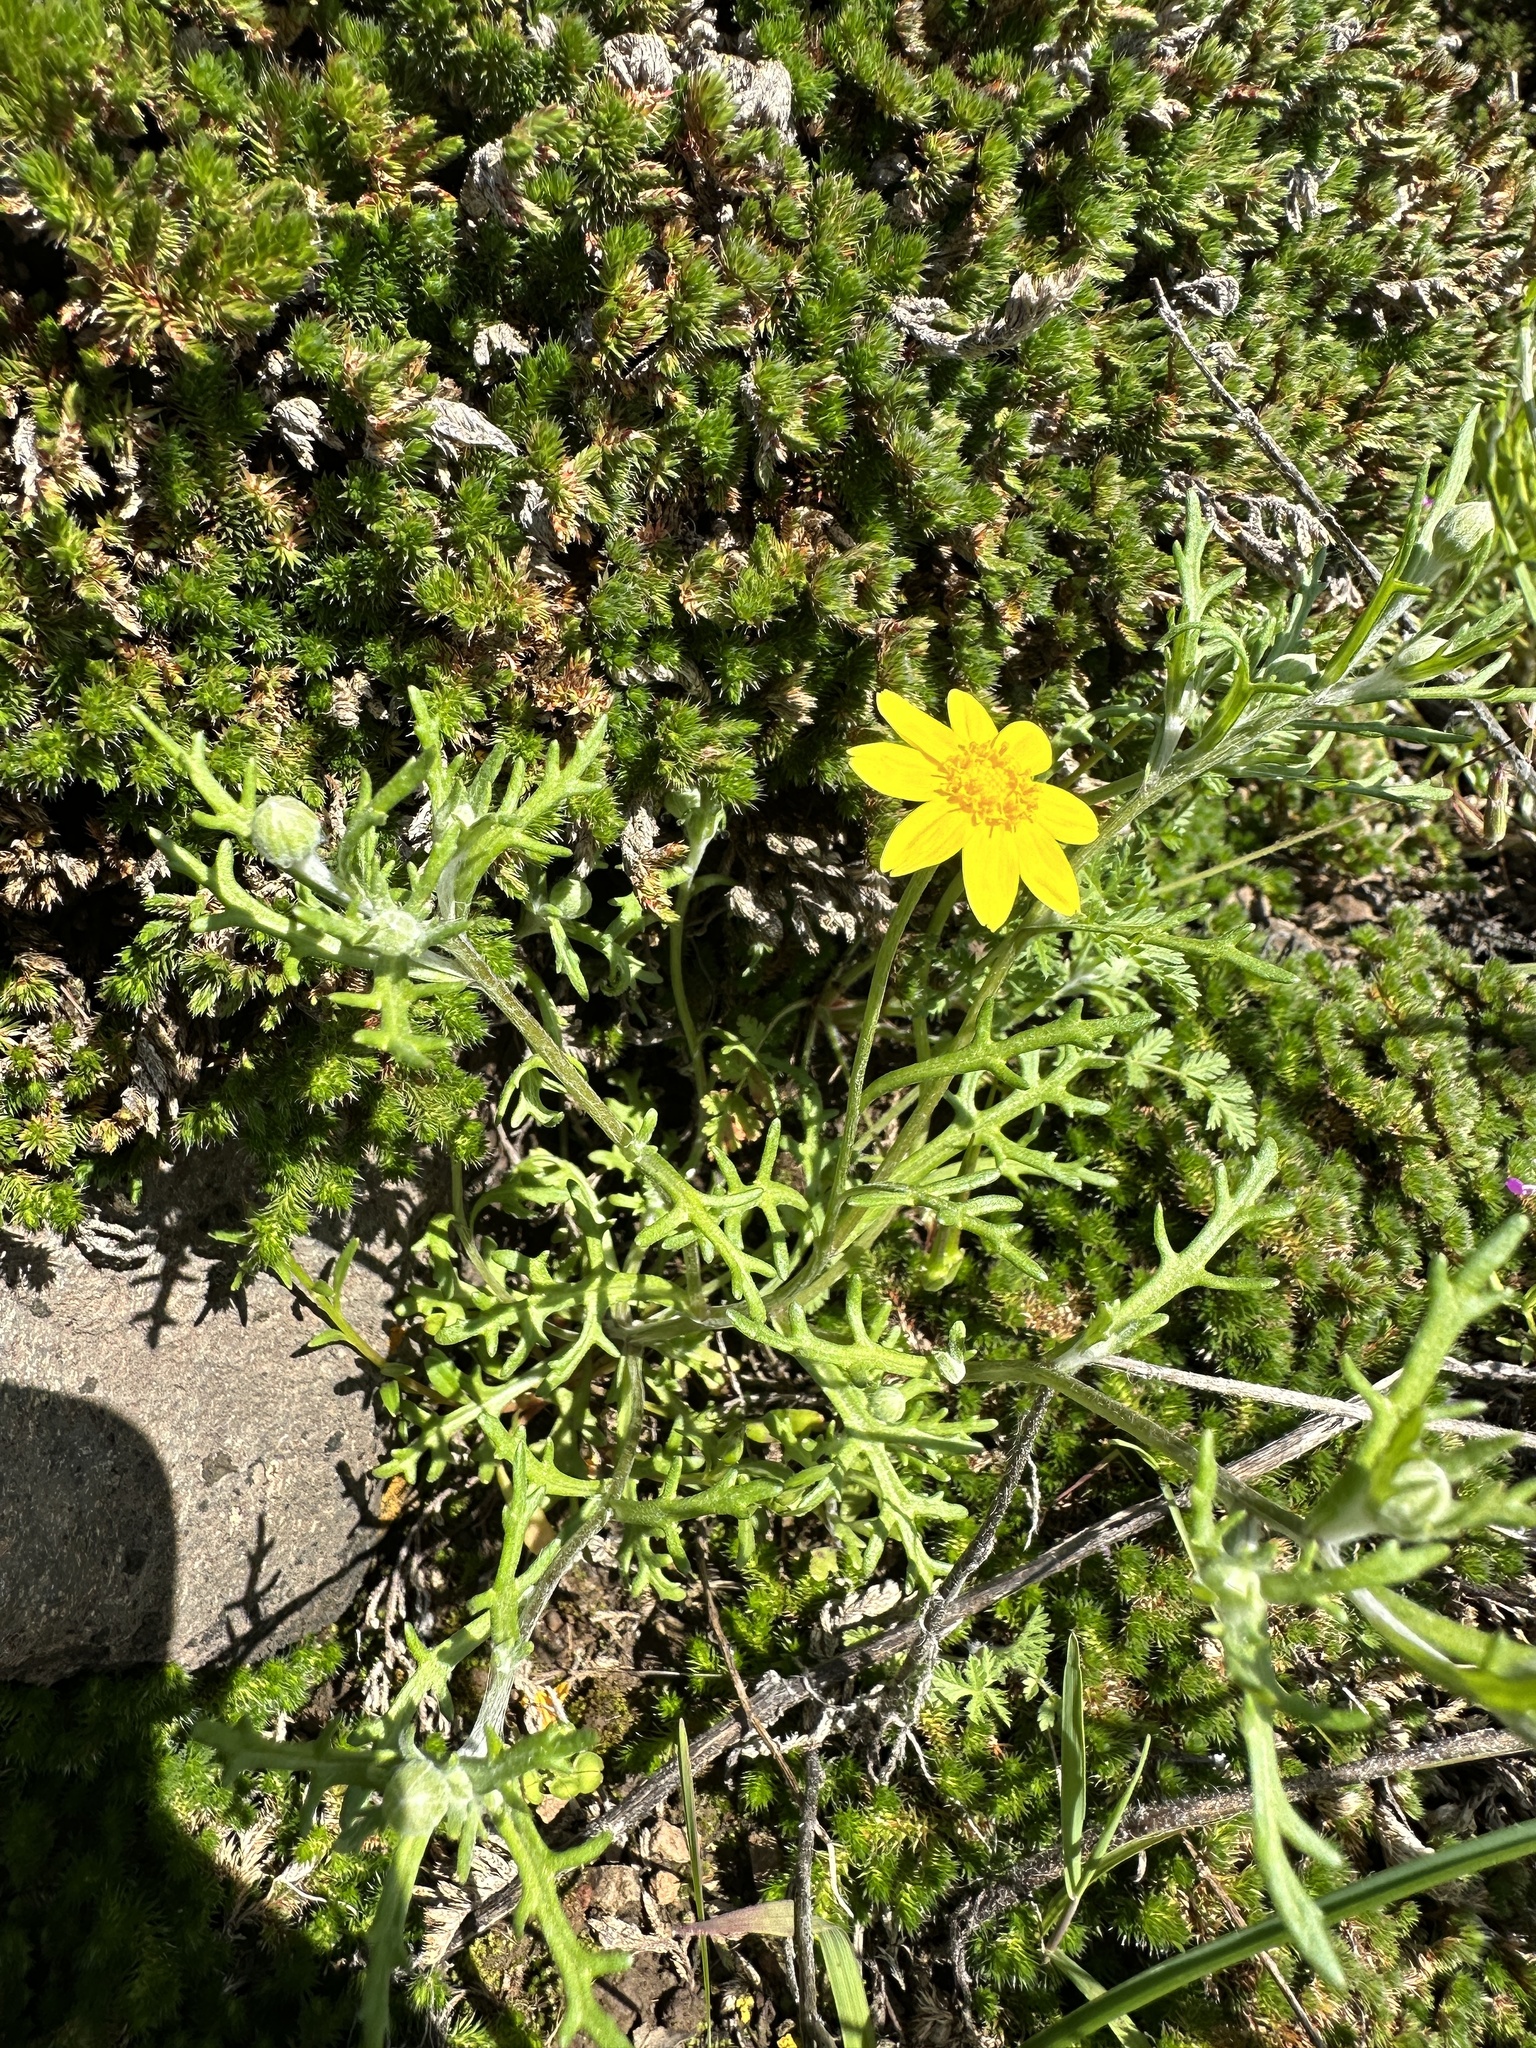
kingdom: Plantae
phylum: Tracheophyta
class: Magnoliopsida
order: Asterales
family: Asteraceae
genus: Pseudobahia
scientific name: Pseudobahia heermannii
